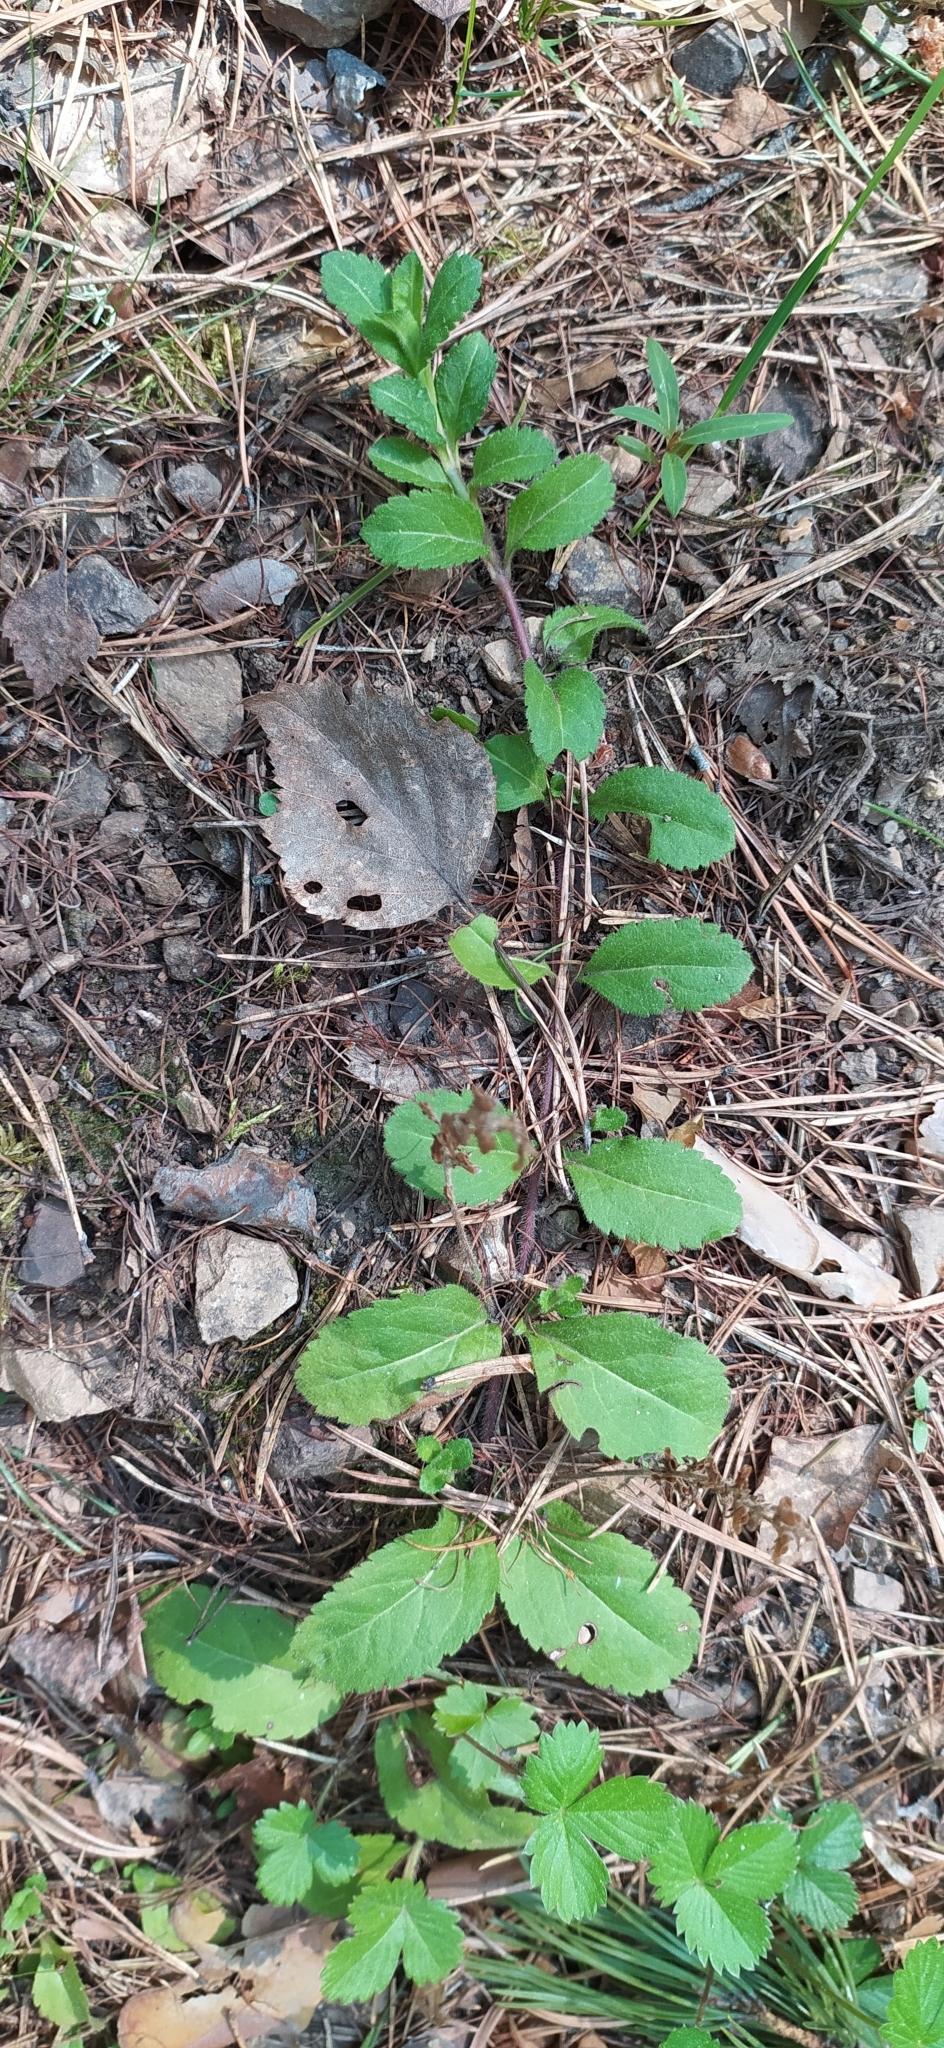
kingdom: Plantae
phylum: Tracheophyta
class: Magnoliopsida
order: Lamiales
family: Plantaginaceae
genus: Veronica
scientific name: Veronica officinalis
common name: Common speedwell
